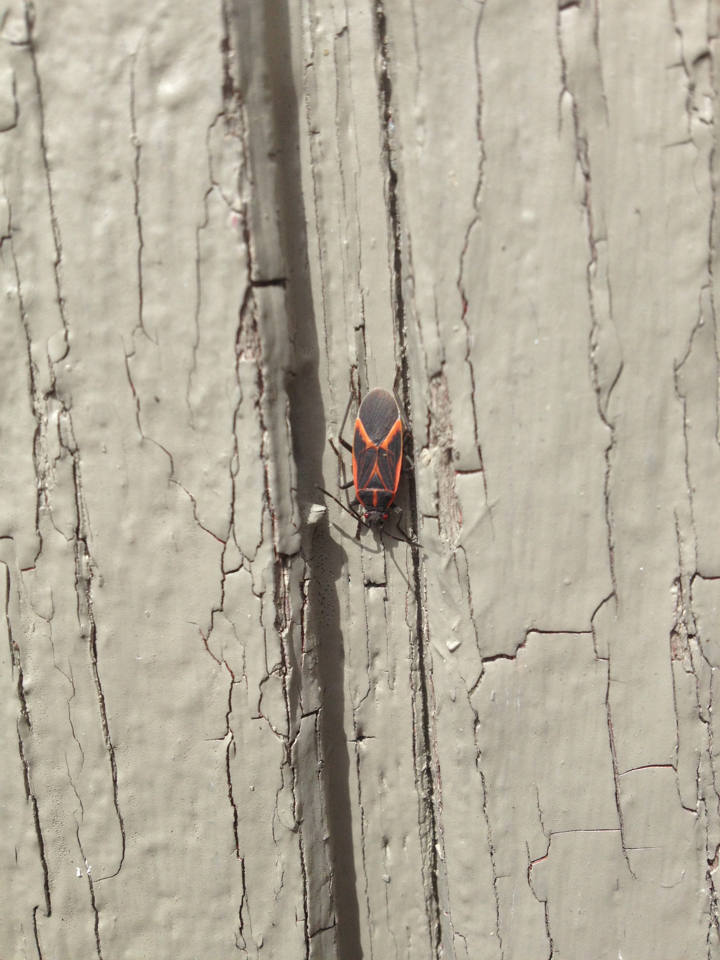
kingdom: Animalia
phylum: Arthropoda
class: Insecta
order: Hemiptera
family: Rhopalidae
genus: Boisea
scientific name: Boisea trivittata
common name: Boxelder bug
